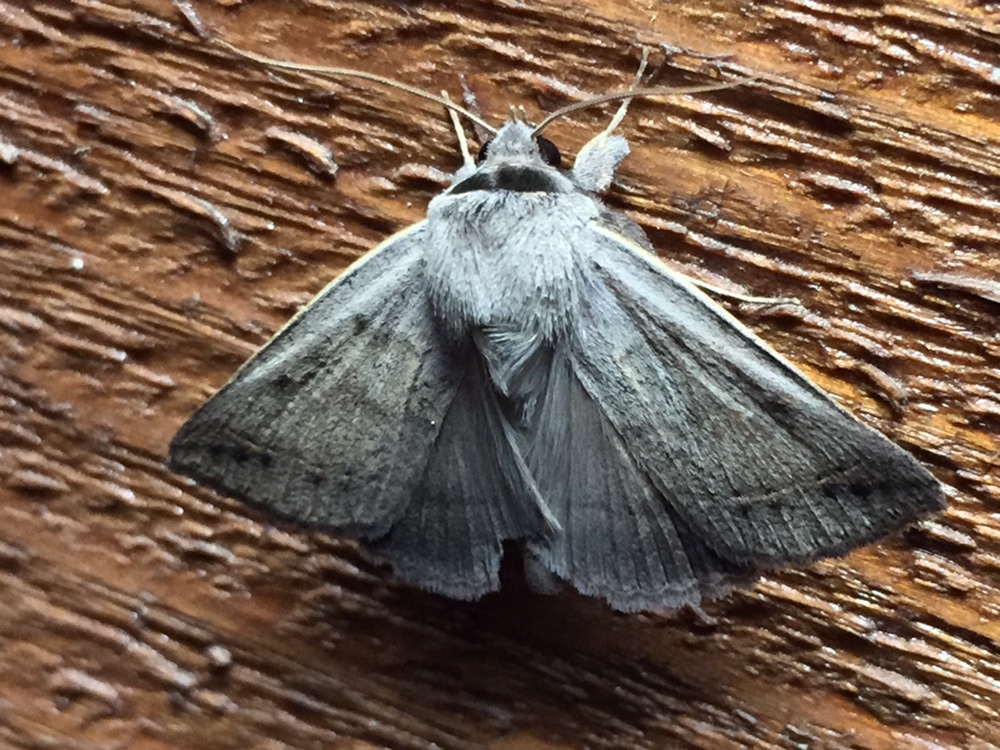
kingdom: Animalia
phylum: Arthropoda
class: Insecta
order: Lepidoptera
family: Erebidae
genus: Pantydia
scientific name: Pantydia sparsa
